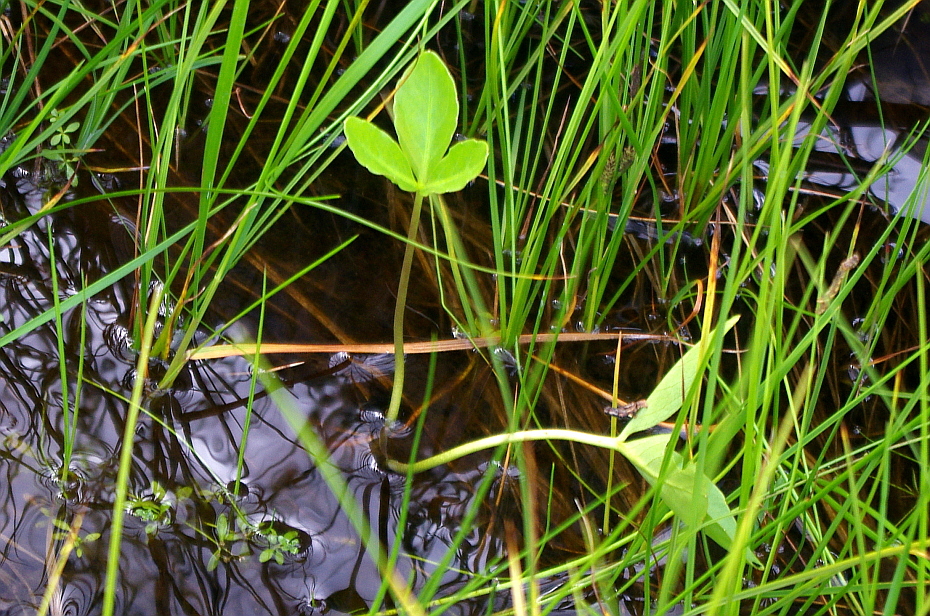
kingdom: Plantae
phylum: Tracheophyta
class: Magnoliopsida
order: Asterales
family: Menyanthaceae
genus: Menyanthes
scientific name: Menyanthes trifoliata
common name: Bogbean
